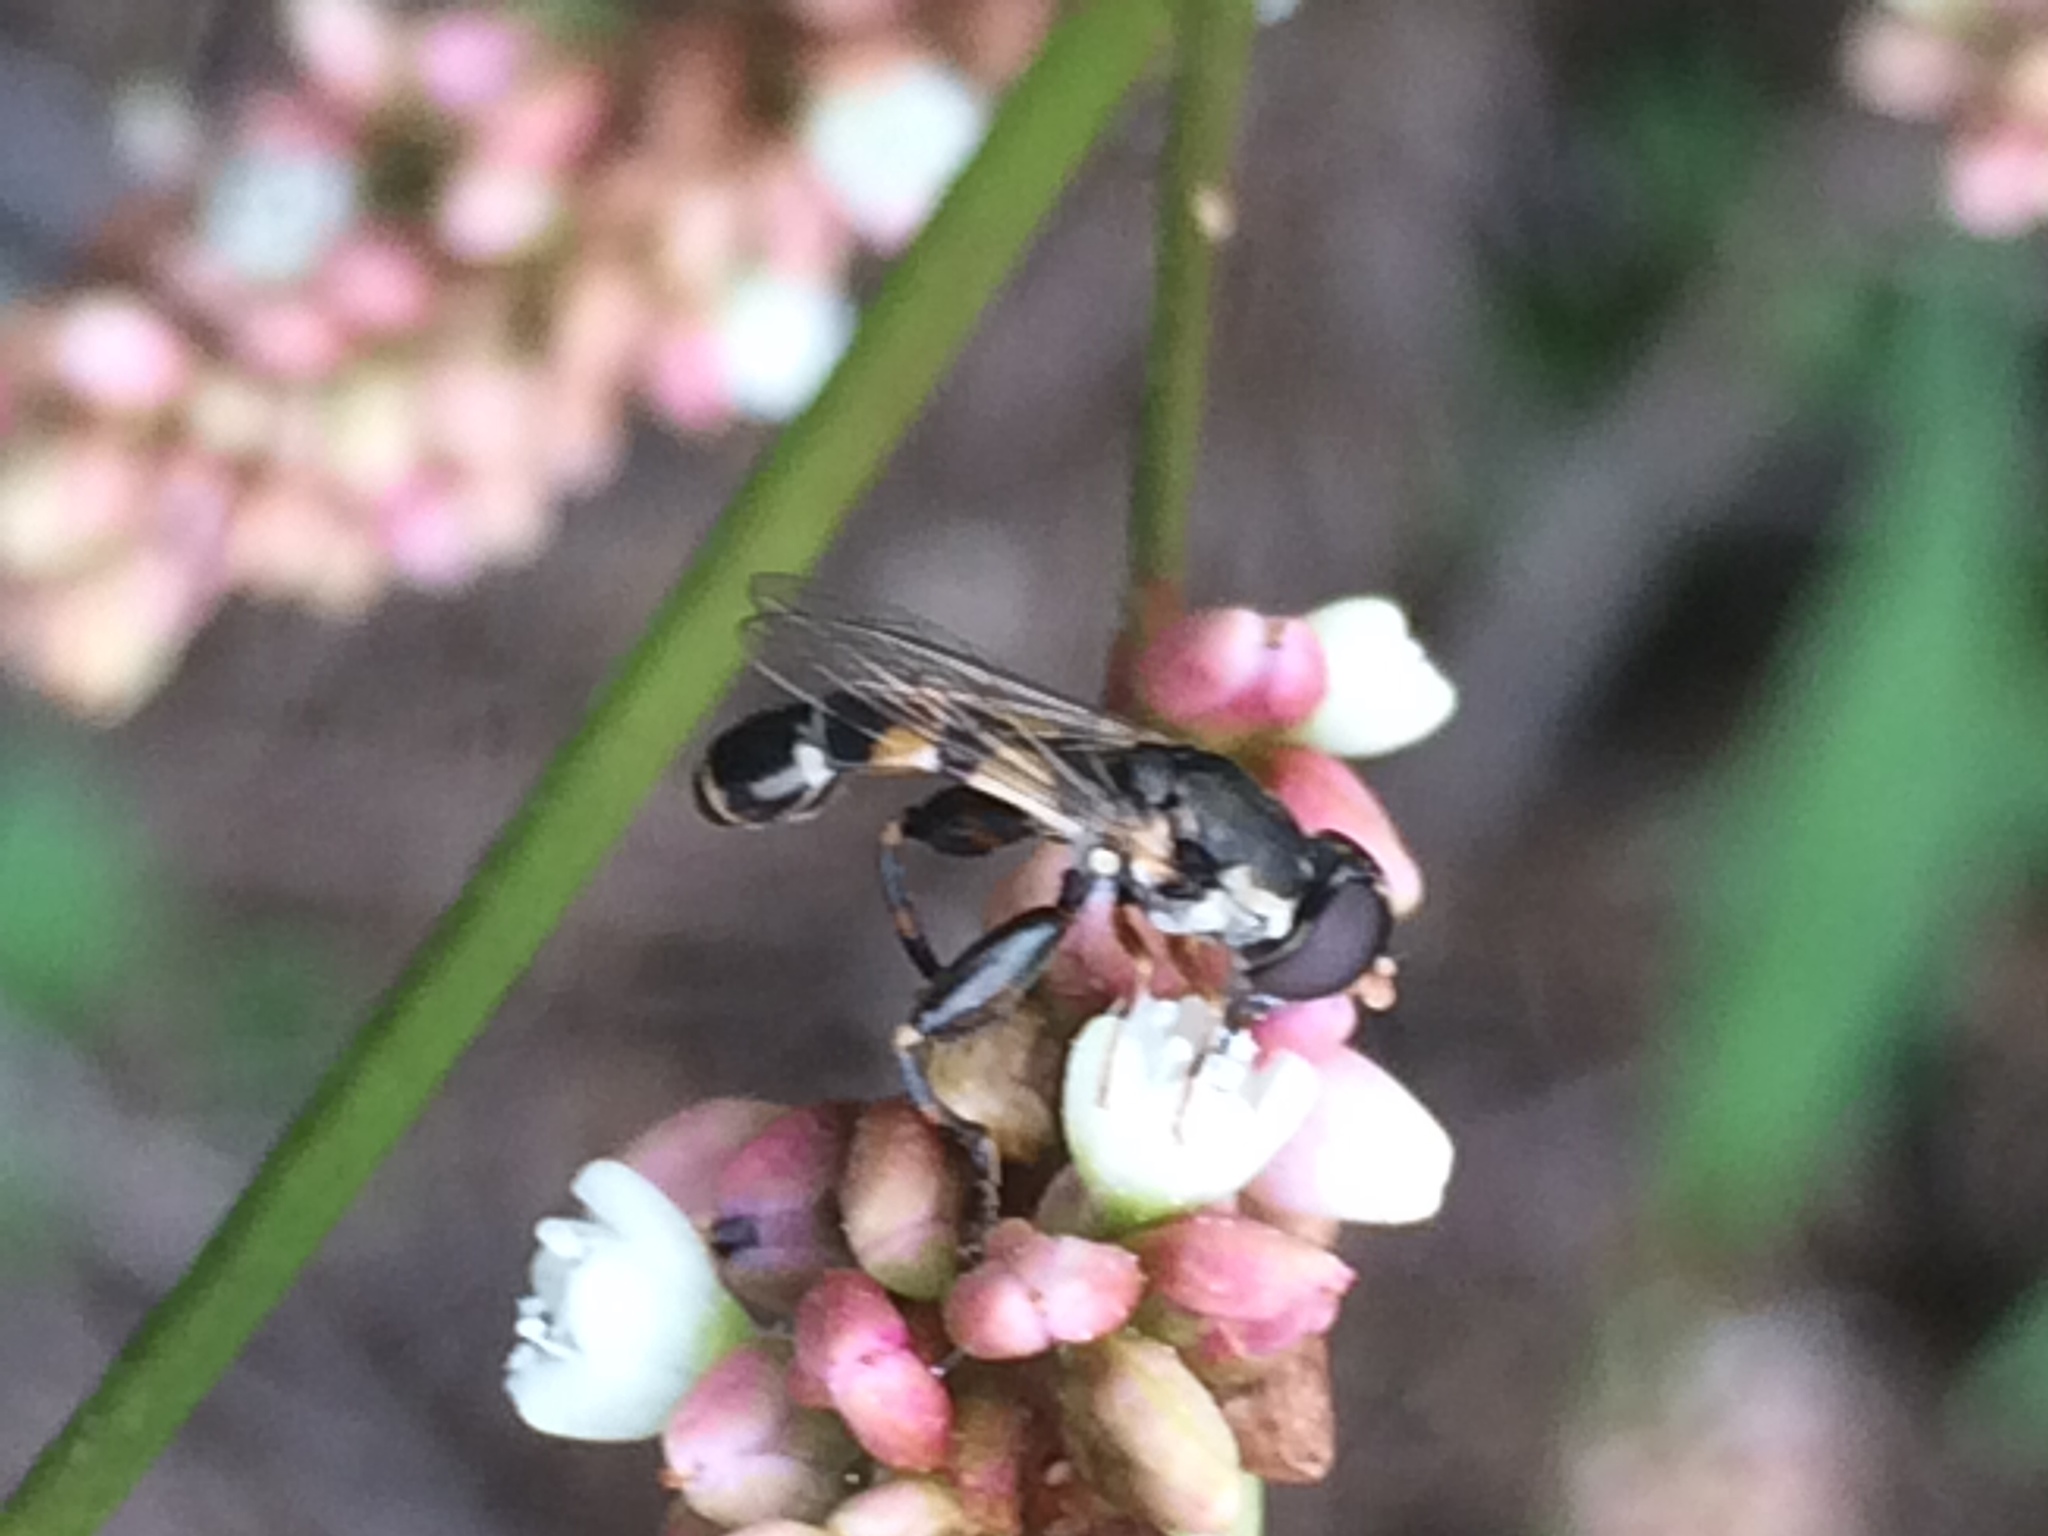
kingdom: Animalia
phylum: Arthropoda
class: Insecta
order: Diptera
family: Syrphidae
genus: Syritta
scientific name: Syritta pipiens
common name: Hover fly
